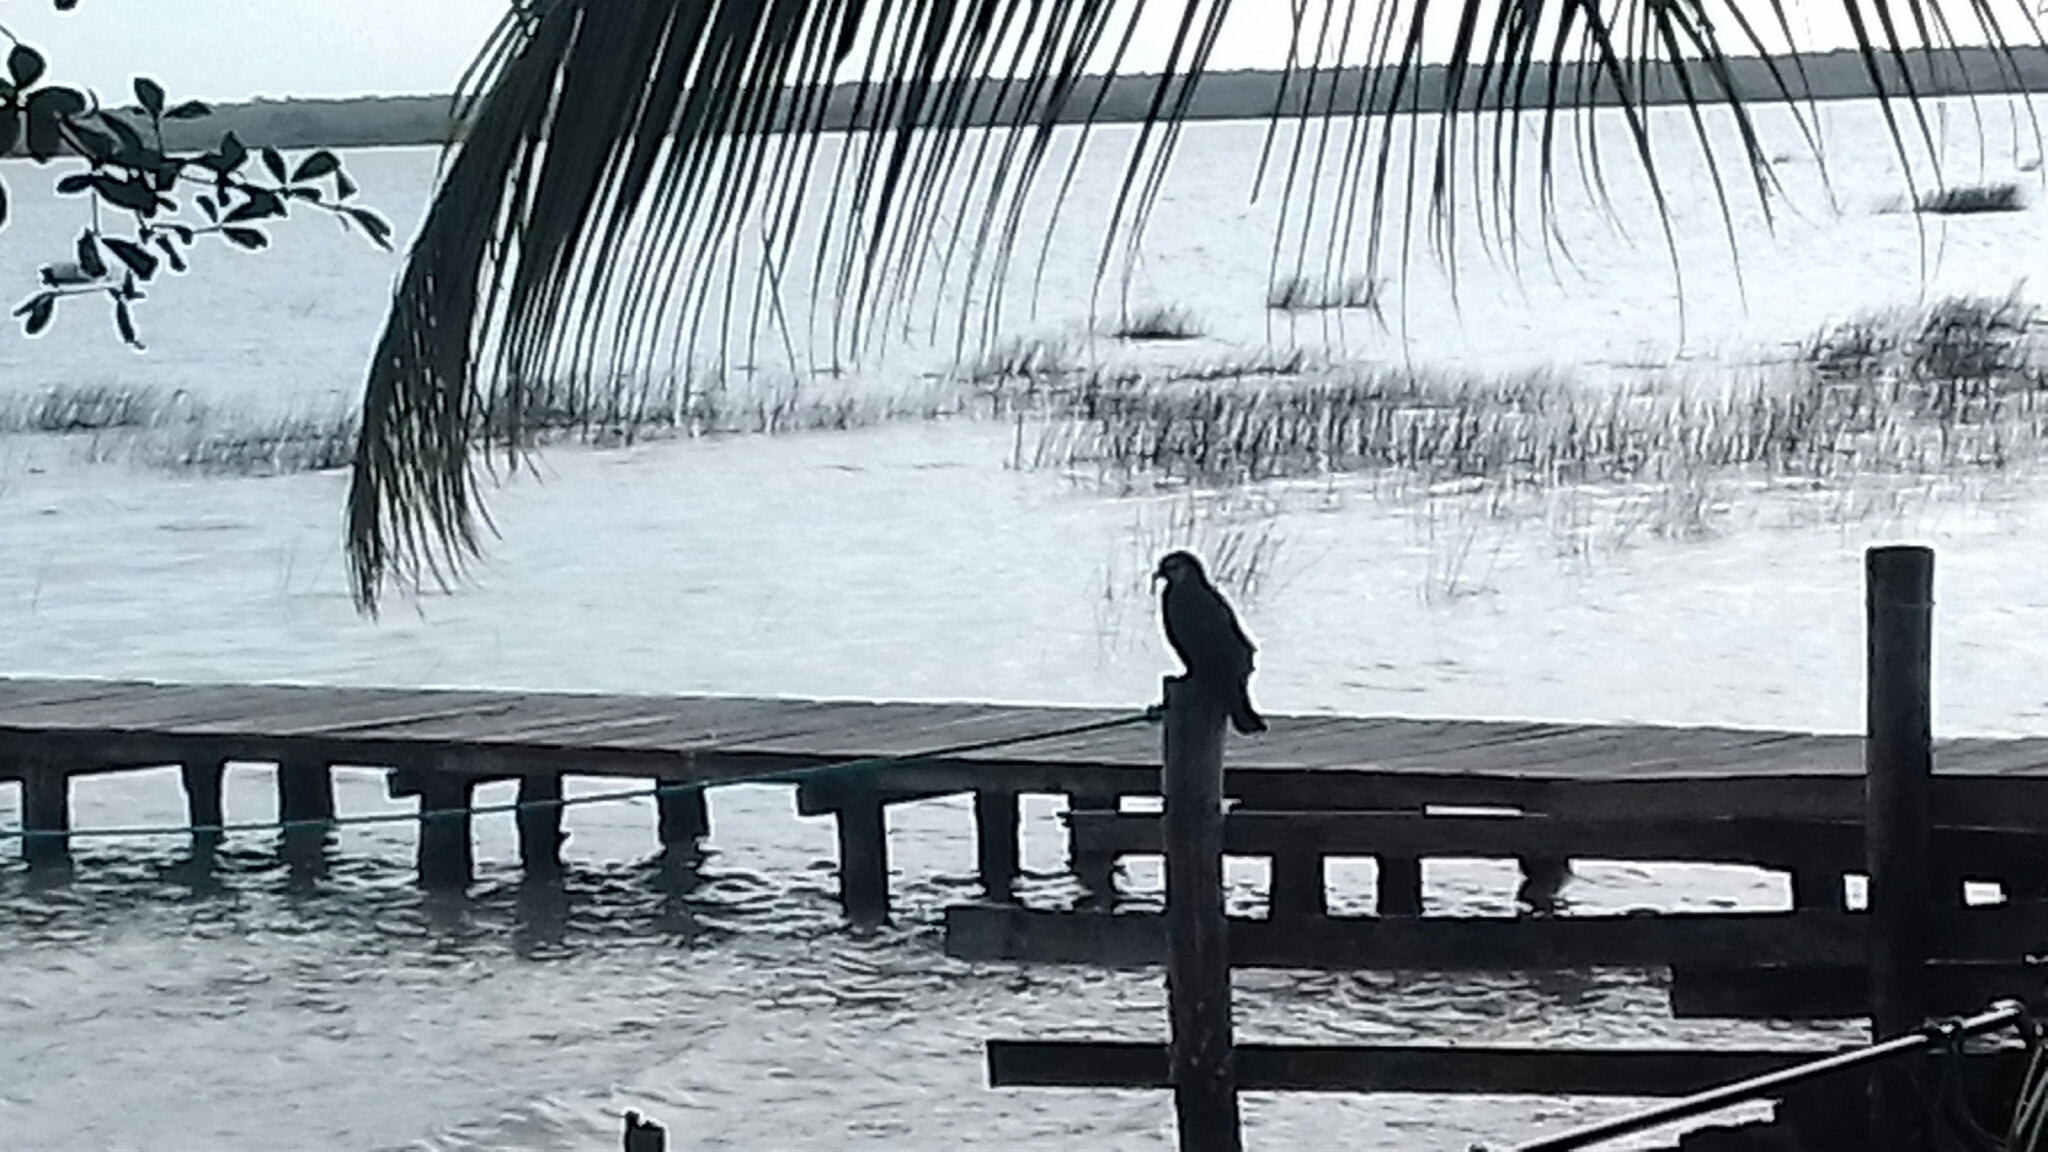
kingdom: Animalia
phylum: Chordata
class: Aves
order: Accipitriformes
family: Accipitridae
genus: Rostrhamus
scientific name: Rostrhamus sociabilis
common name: Snail kite
